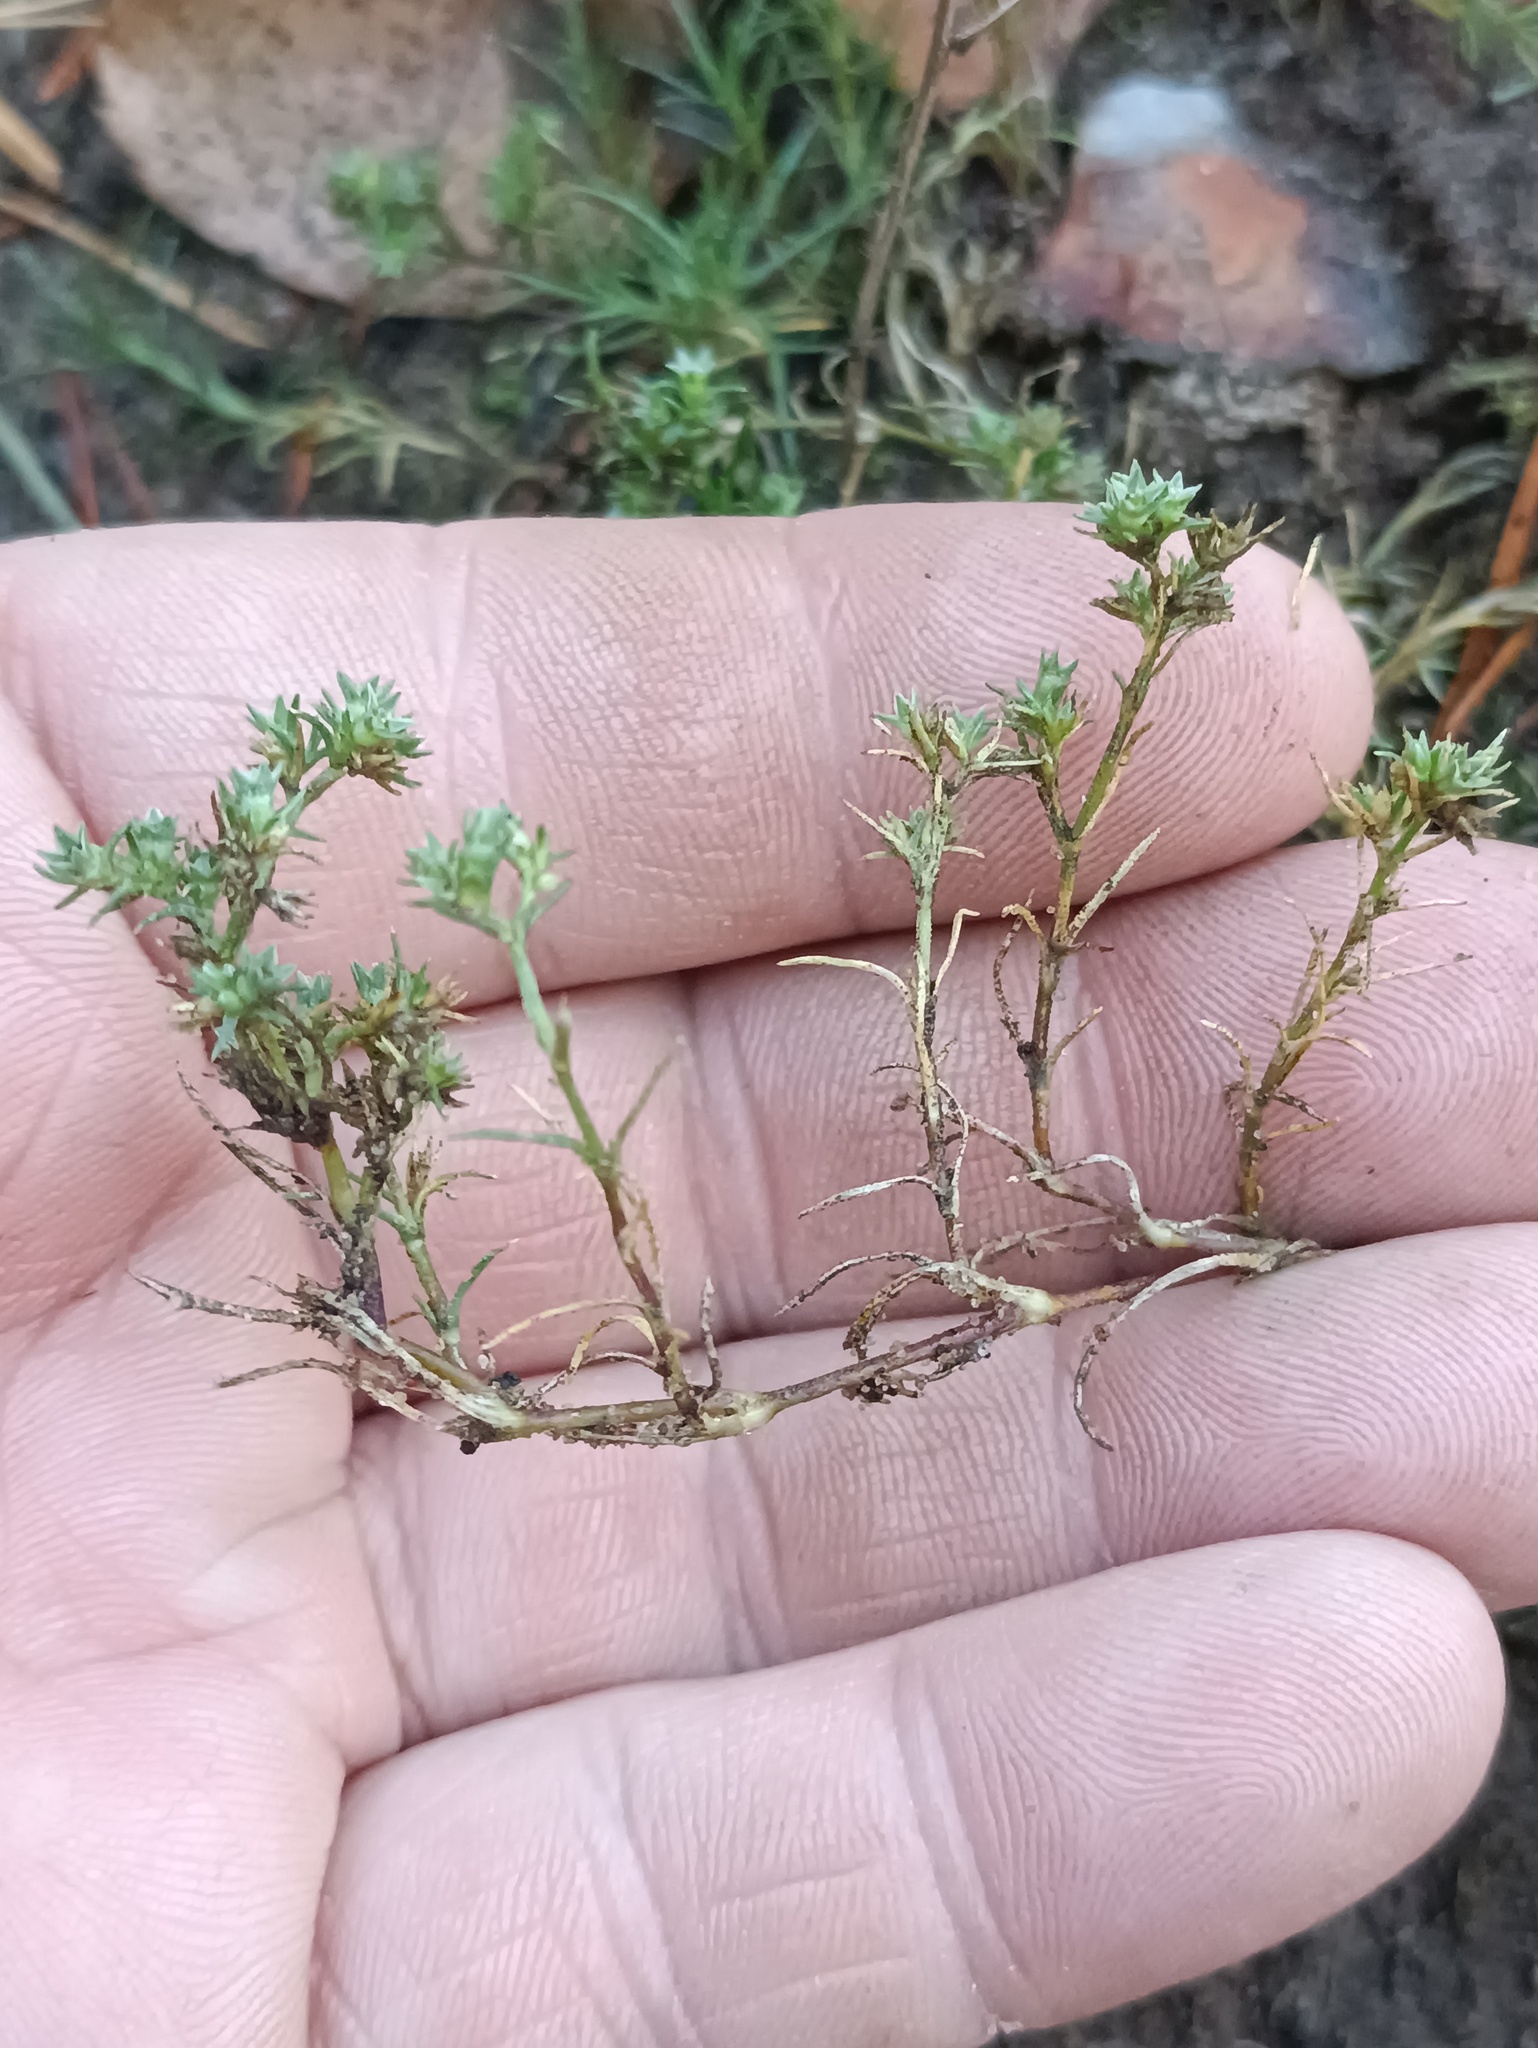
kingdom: Plantae
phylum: Tracheophyta
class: Magnoliopsida
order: Caryophyllales
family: Caryophyllaceae
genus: Scleranthus
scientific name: Scleranthus annuus
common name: Annual knawel
